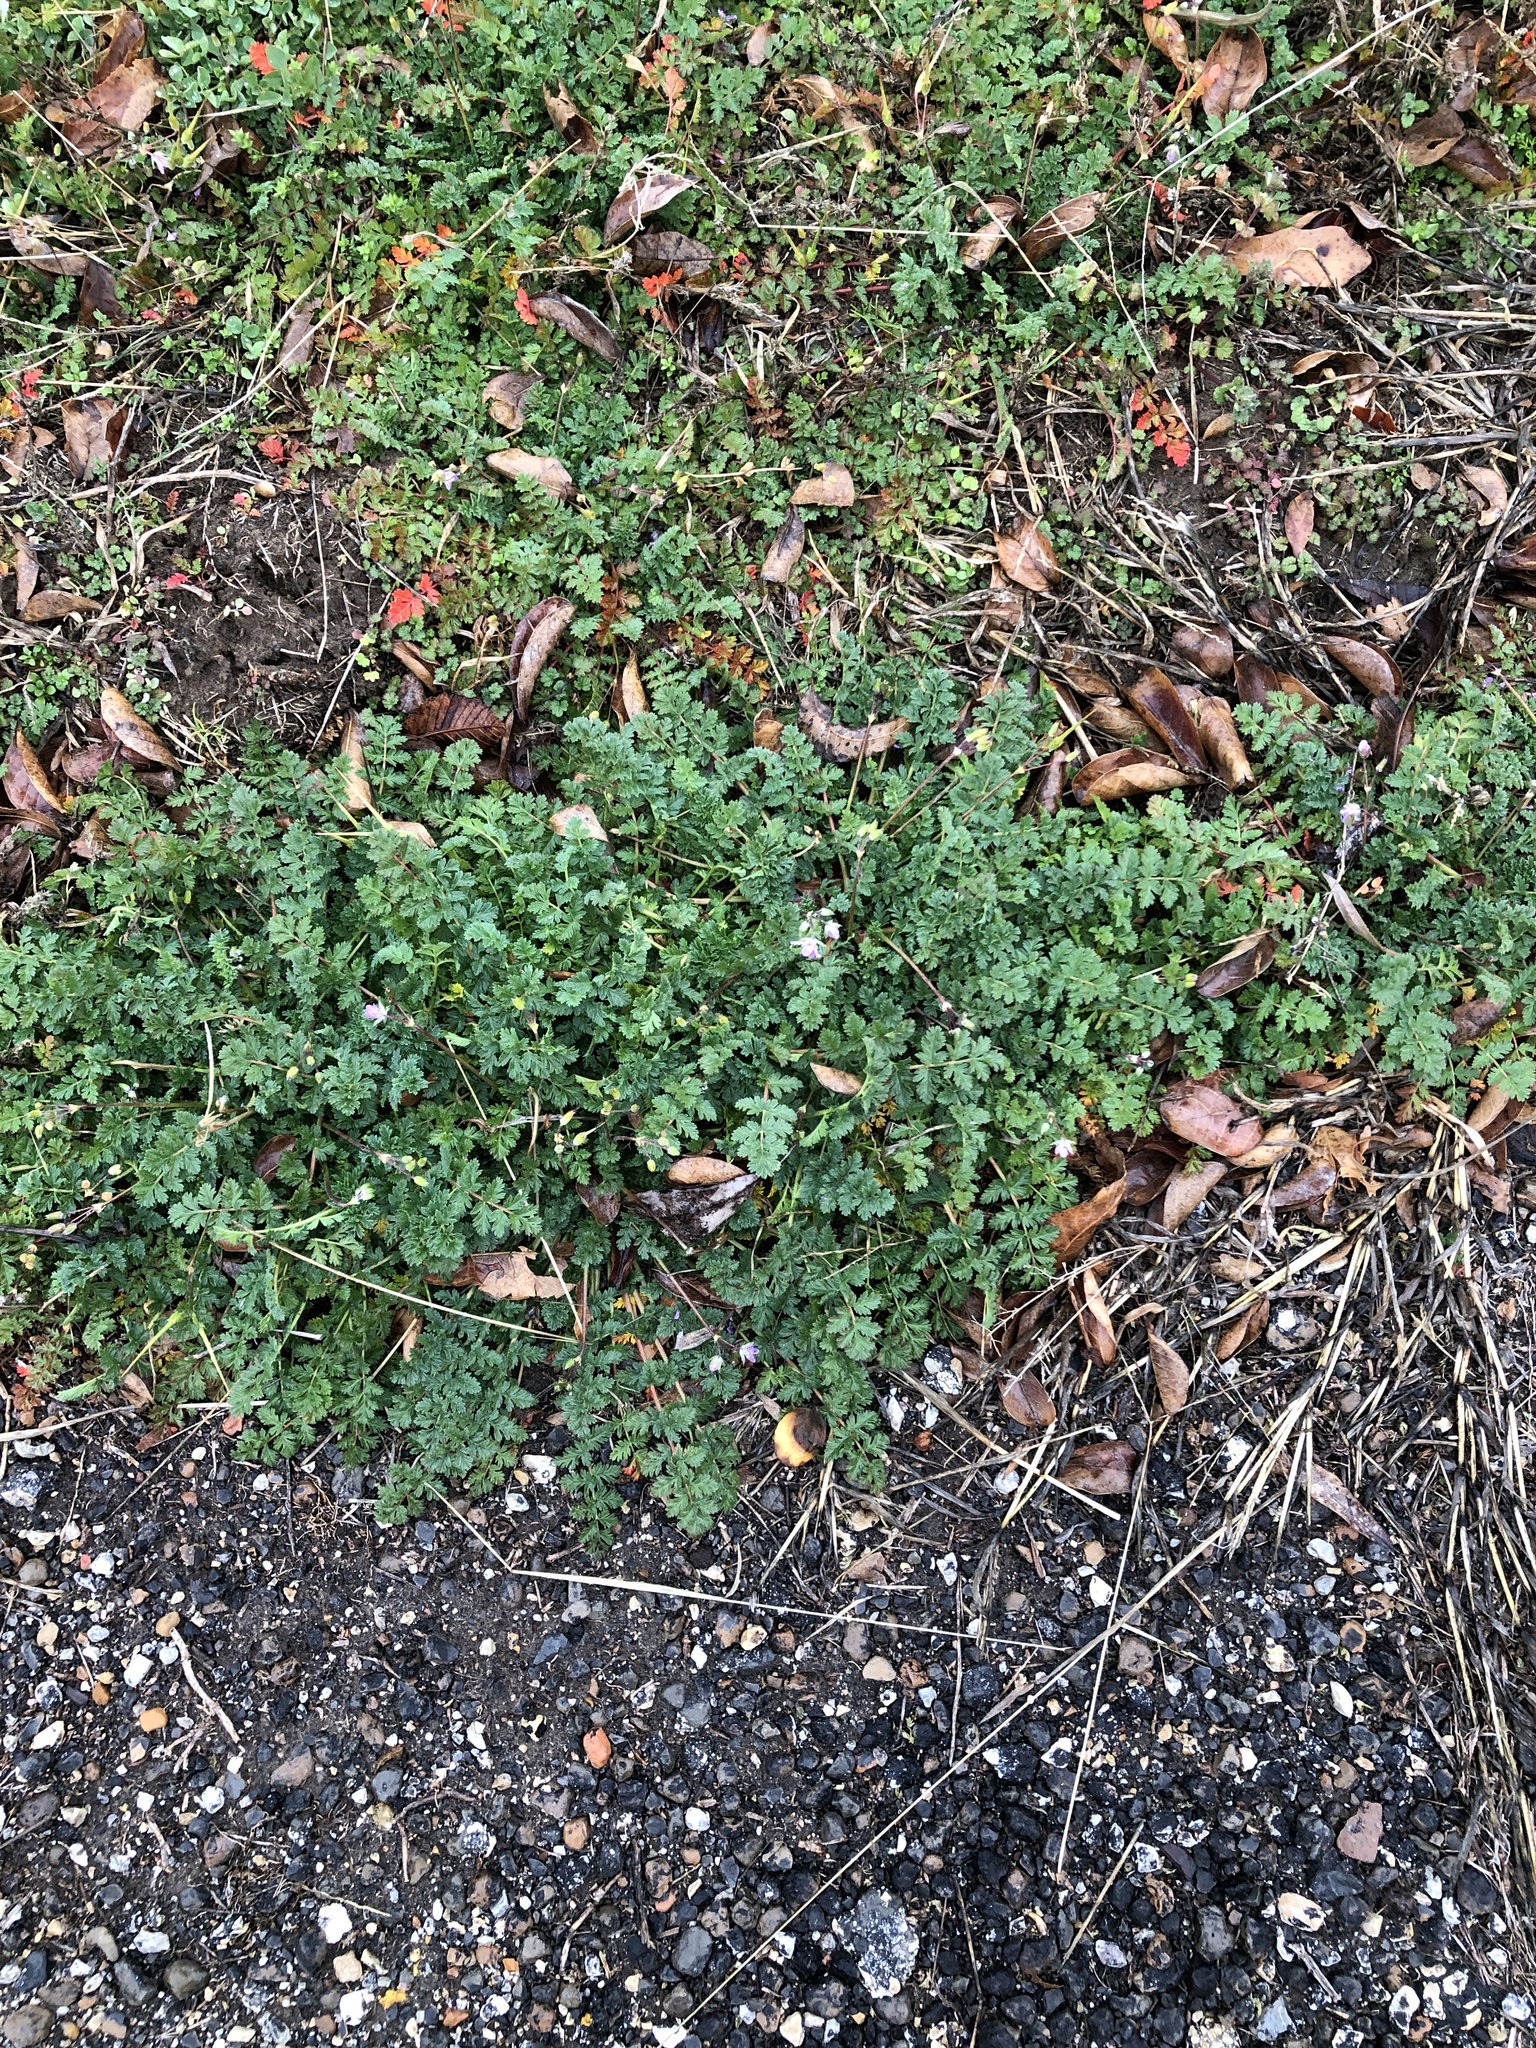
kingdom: Plantae
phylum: Tracheophyta
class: Magnoliopsida
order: Geraniales
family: Geraniaceae
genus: Erodium
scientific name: Erodium cicutarium
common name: Common stork's-bill
